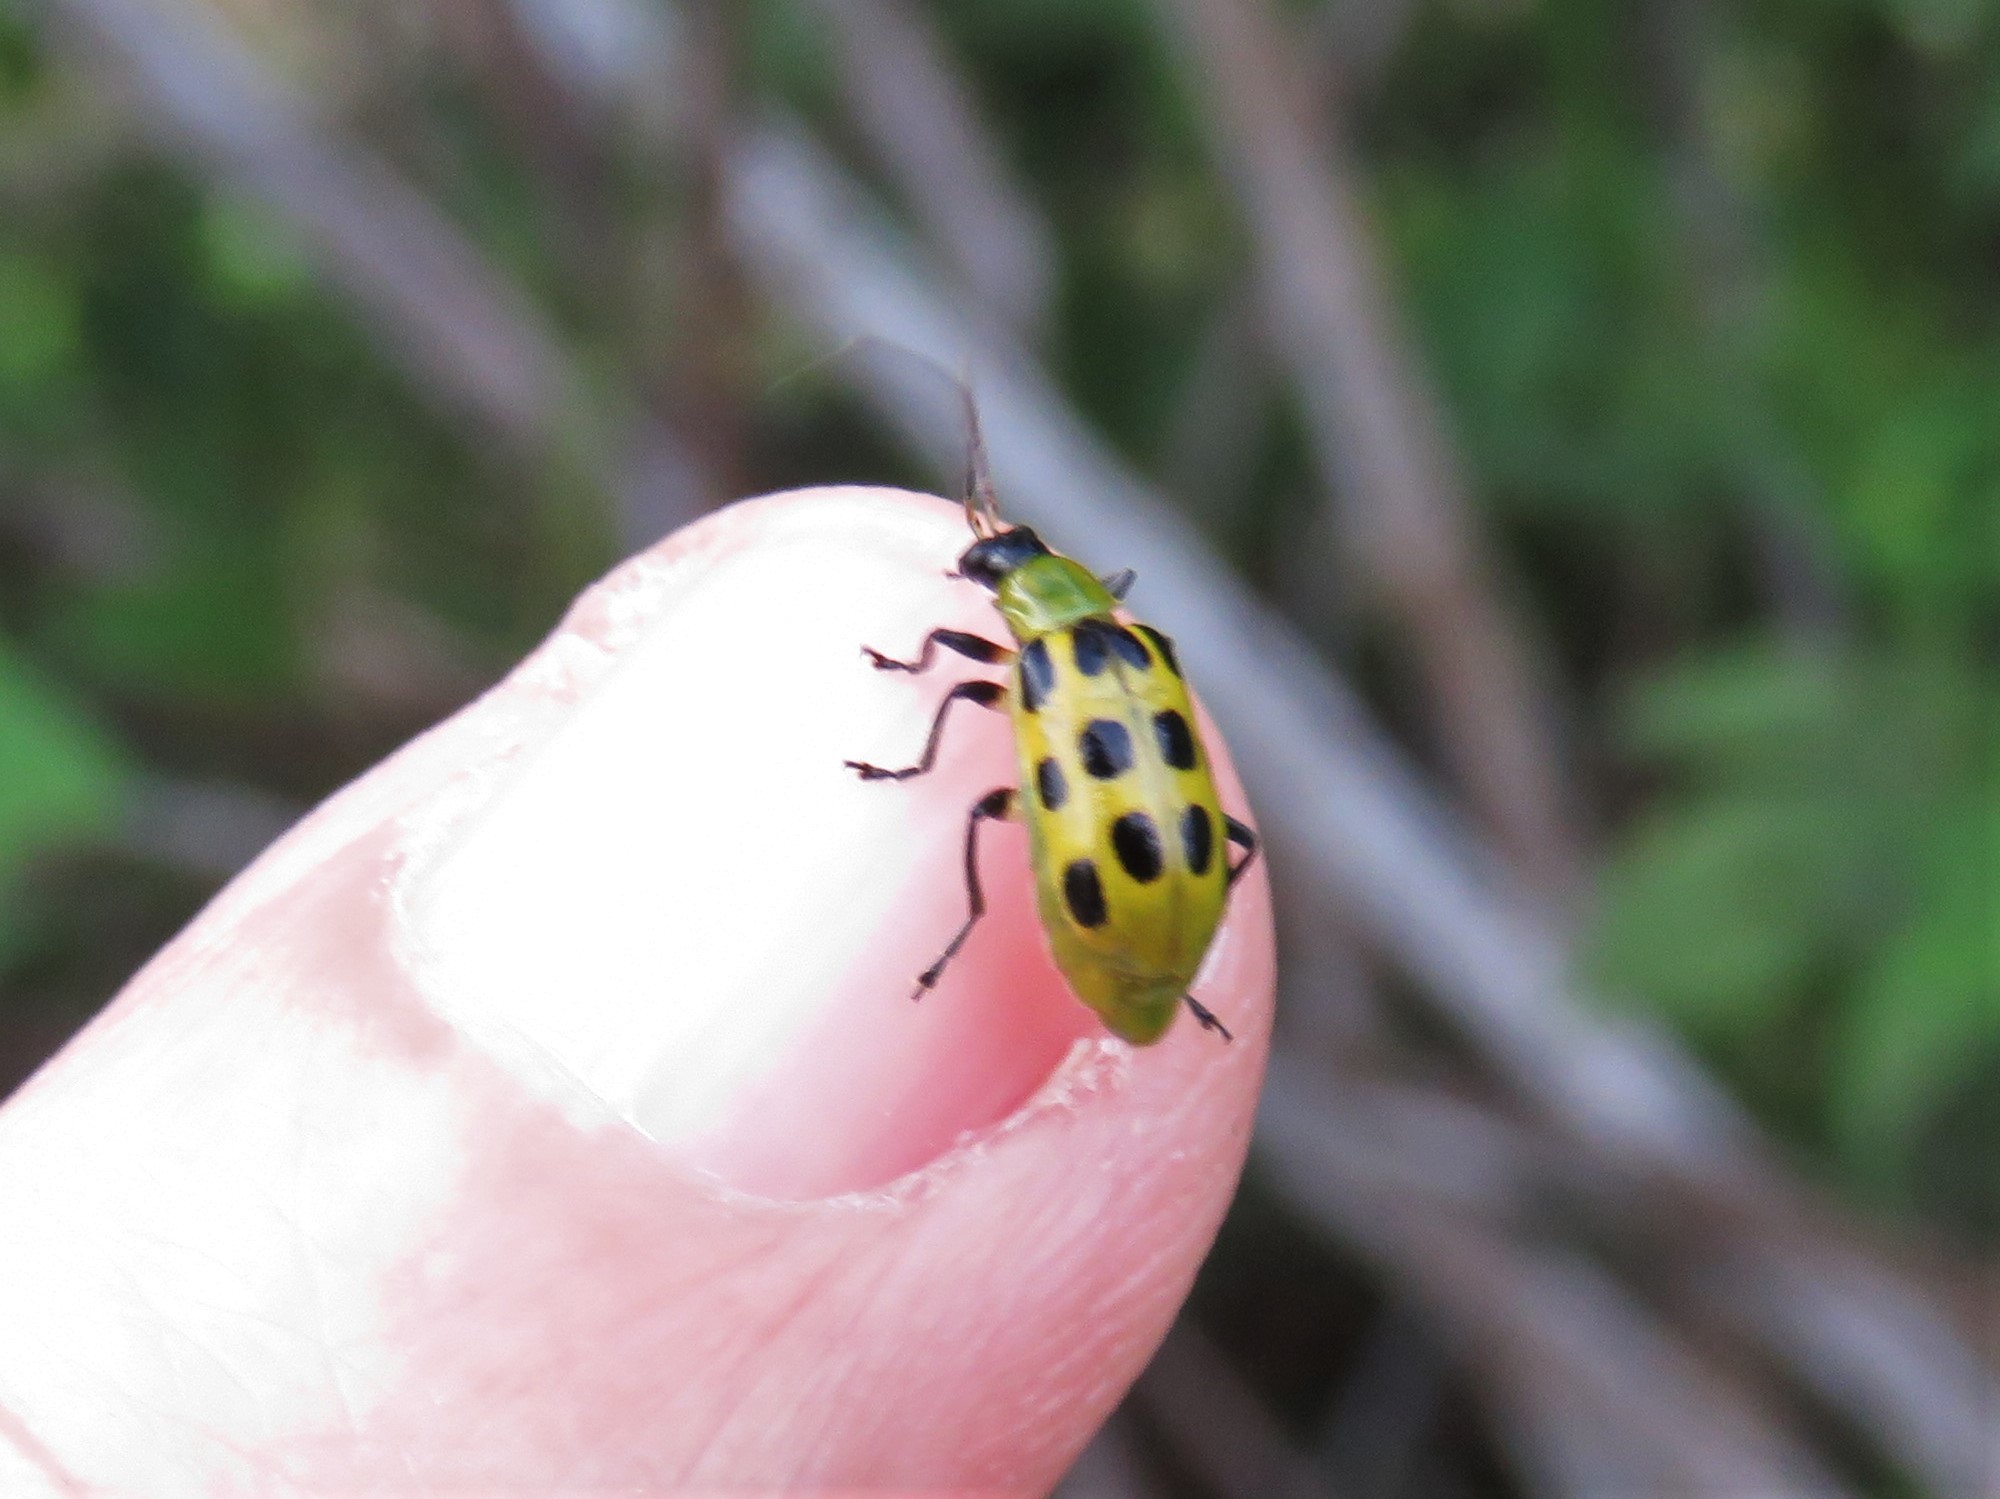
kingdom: Animalia
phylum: Arthropoda
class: Insecta
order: Coleoptera
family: Chrysomelidae
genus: Diabrotica
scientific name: Diabrotica undecimpunctata
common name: Spotted cucumber beetle
